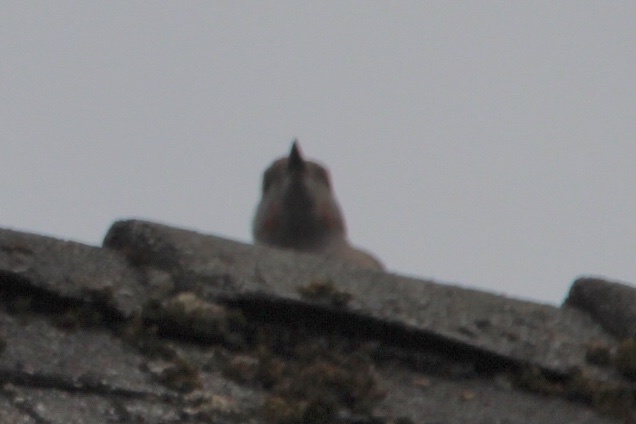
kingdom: Animalia
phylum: Chordata
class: Aves
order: Piciformes
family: Picidae
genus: Colaptes
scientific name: Colaptes auratus
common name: Northern flicker
